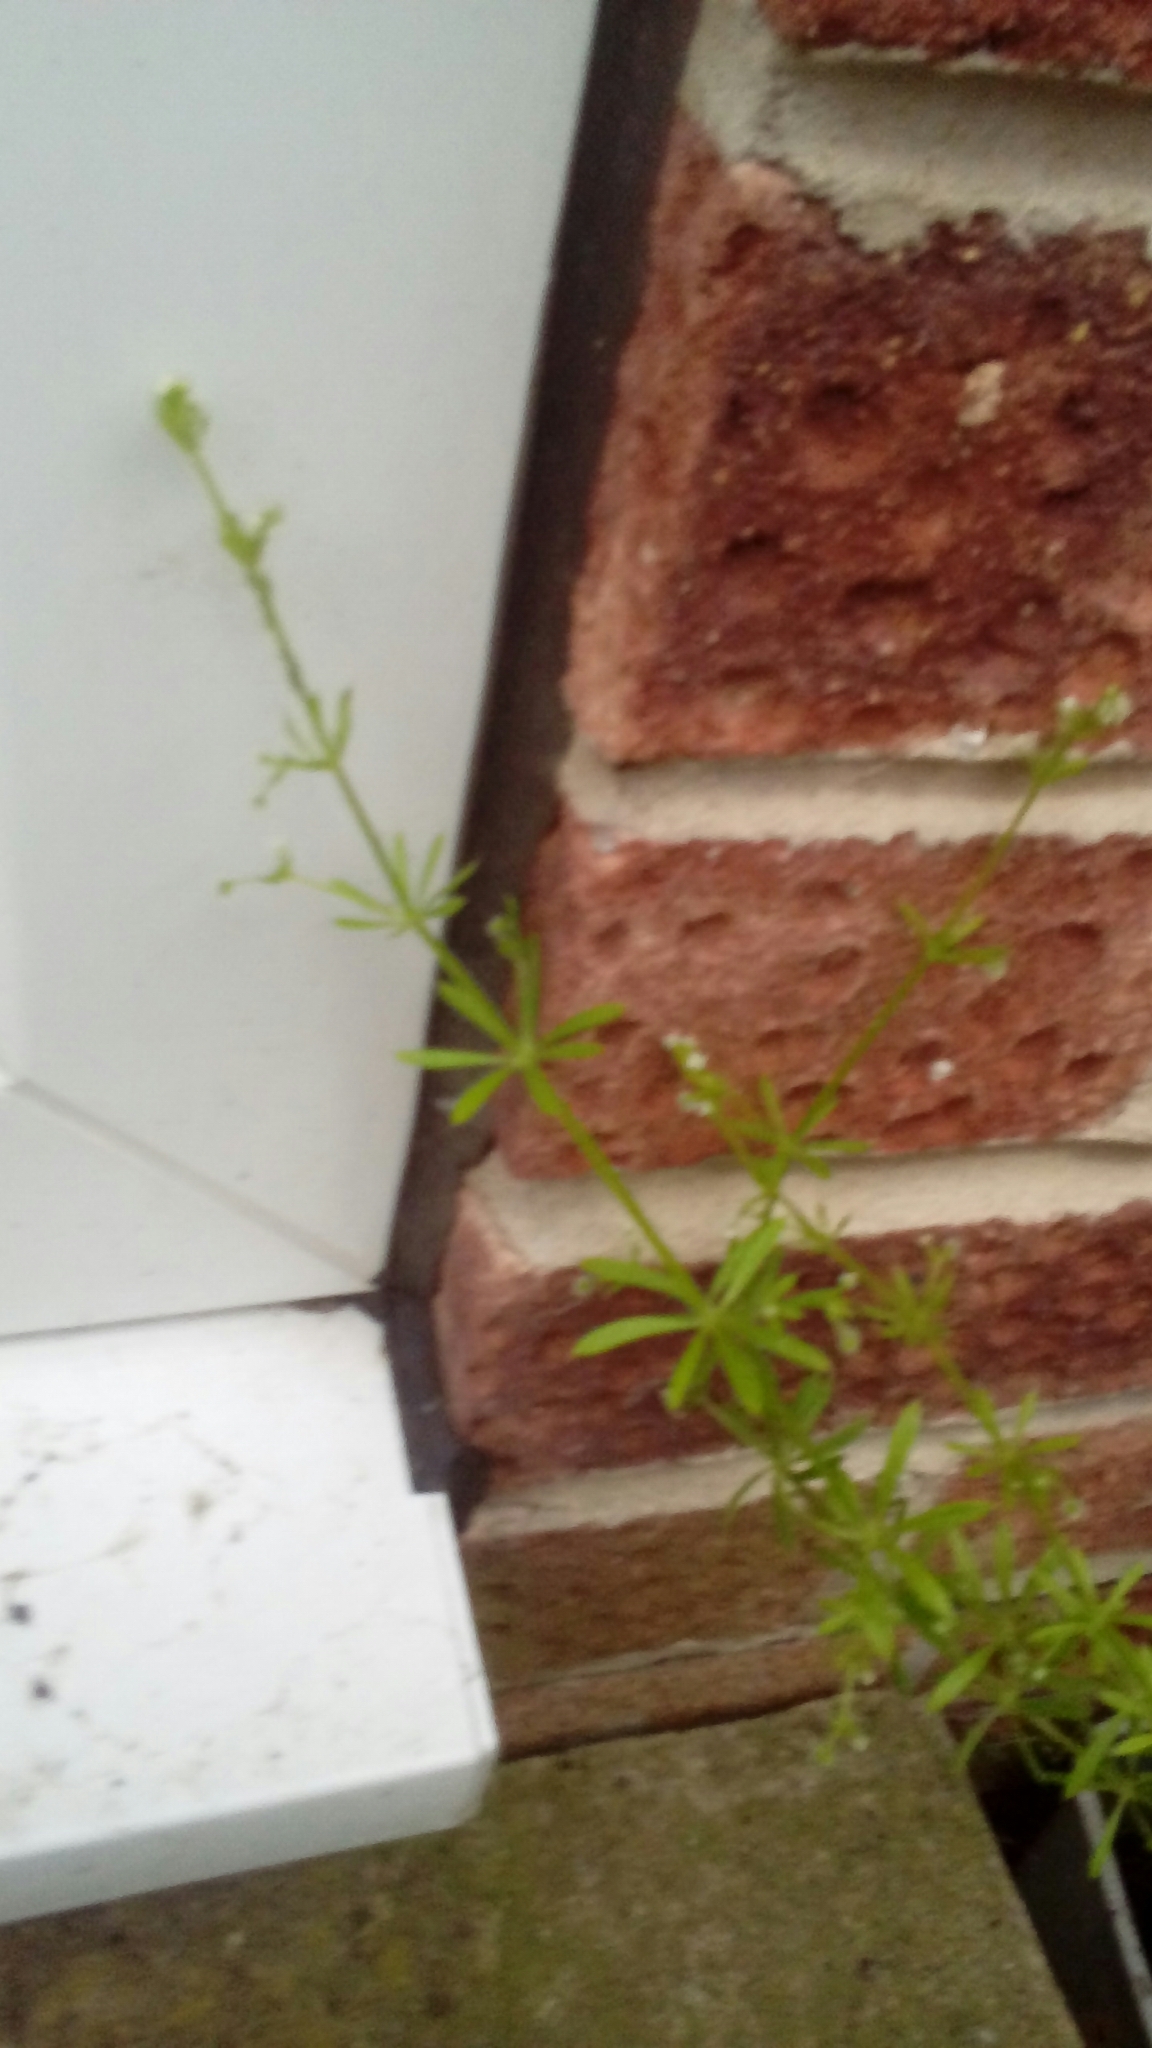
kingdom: Plantae
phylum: Tracheophyta
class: Magnoliopsida
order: Gentianales
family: Rubiaceae
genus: Galium
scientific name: Galium aparine
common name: Cleavers
